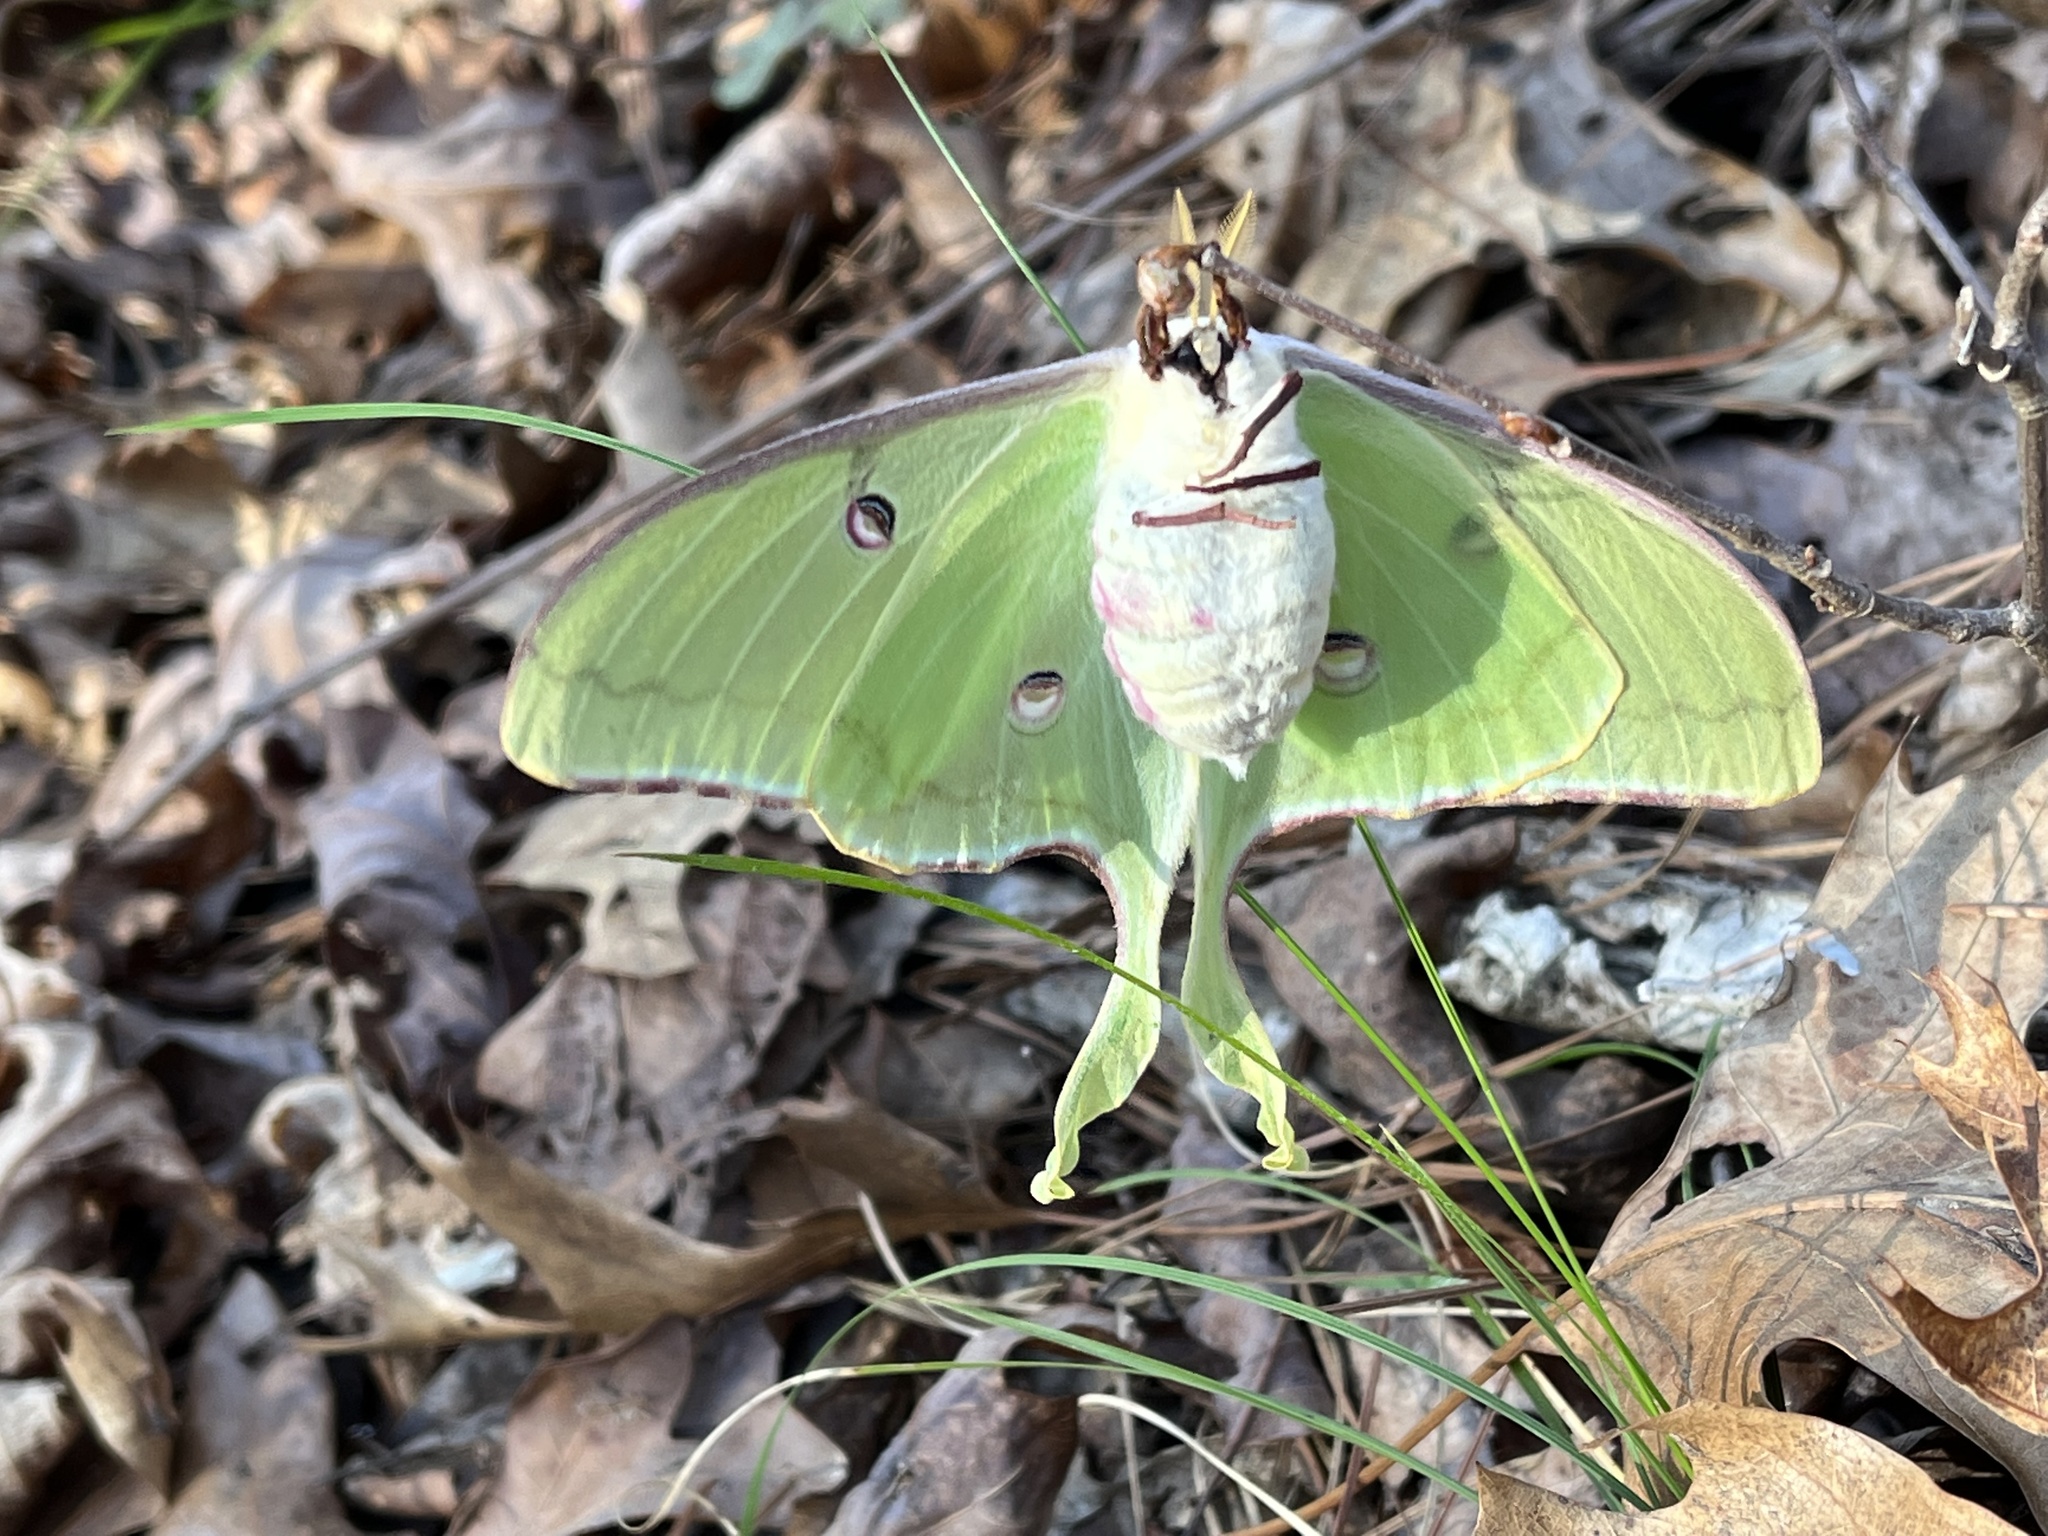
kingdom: Animalia
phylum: Arthropoda
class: Insecta
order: Lepidoptera
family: Saturniidae
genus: Actias
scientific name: Actias luna
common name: Luna moth
